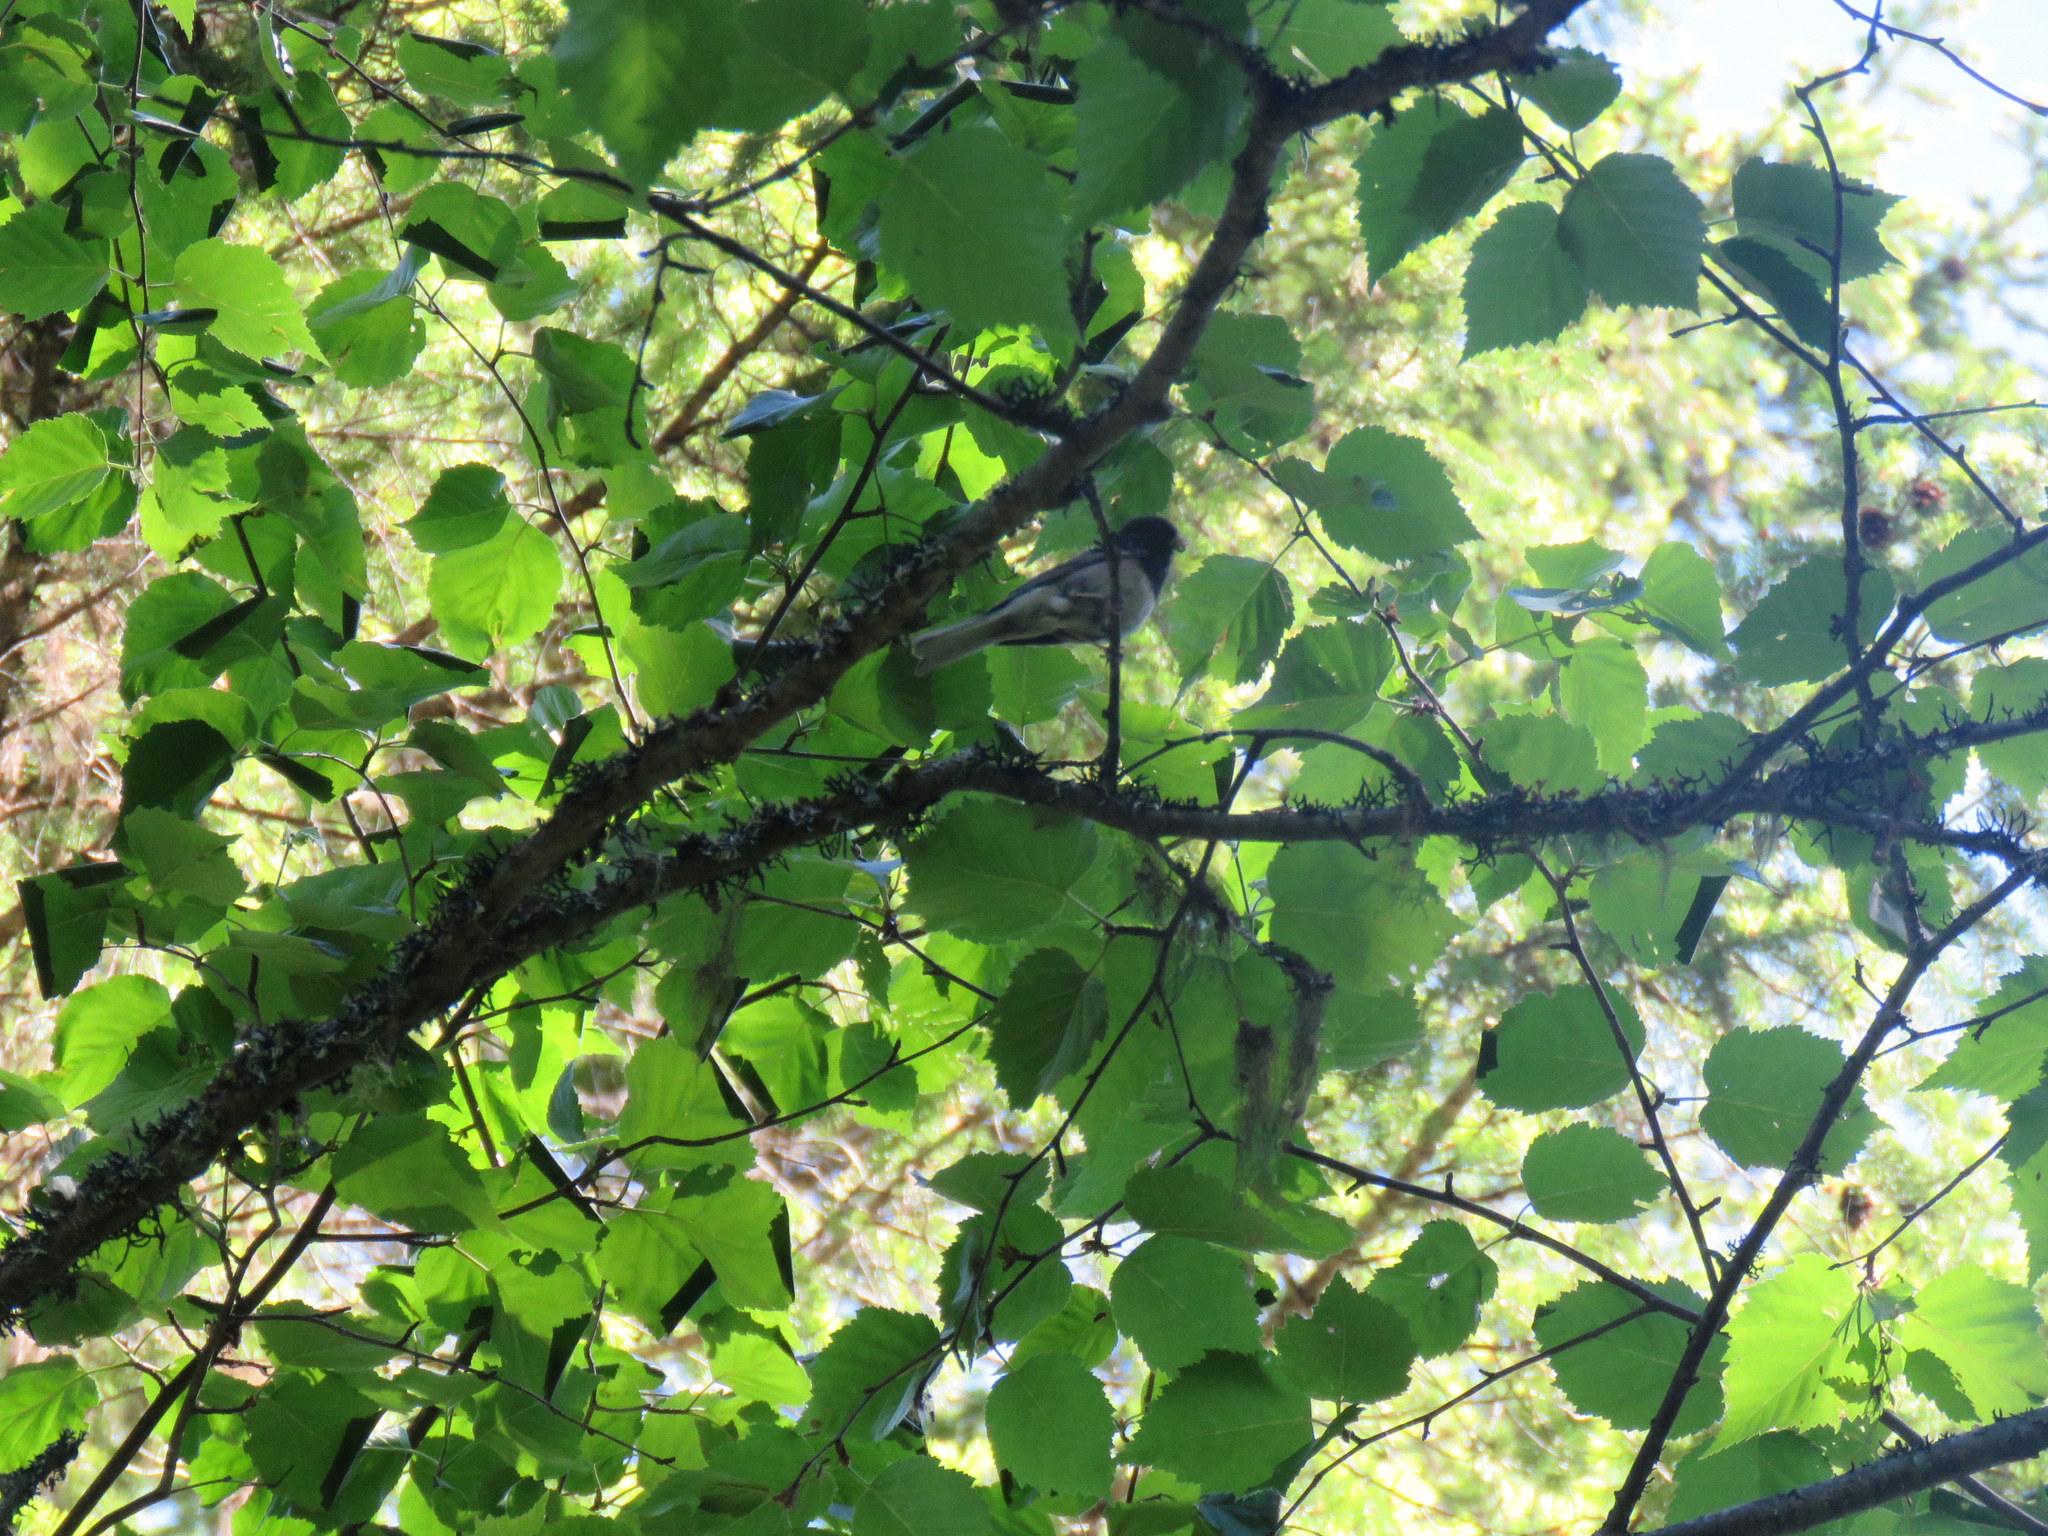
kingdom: Animalia
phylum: Chordata
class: Aves
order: Passeriformes
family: Passerellidae
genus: Junco
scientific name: Junco hyemalis
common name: Dark-eyed junco
